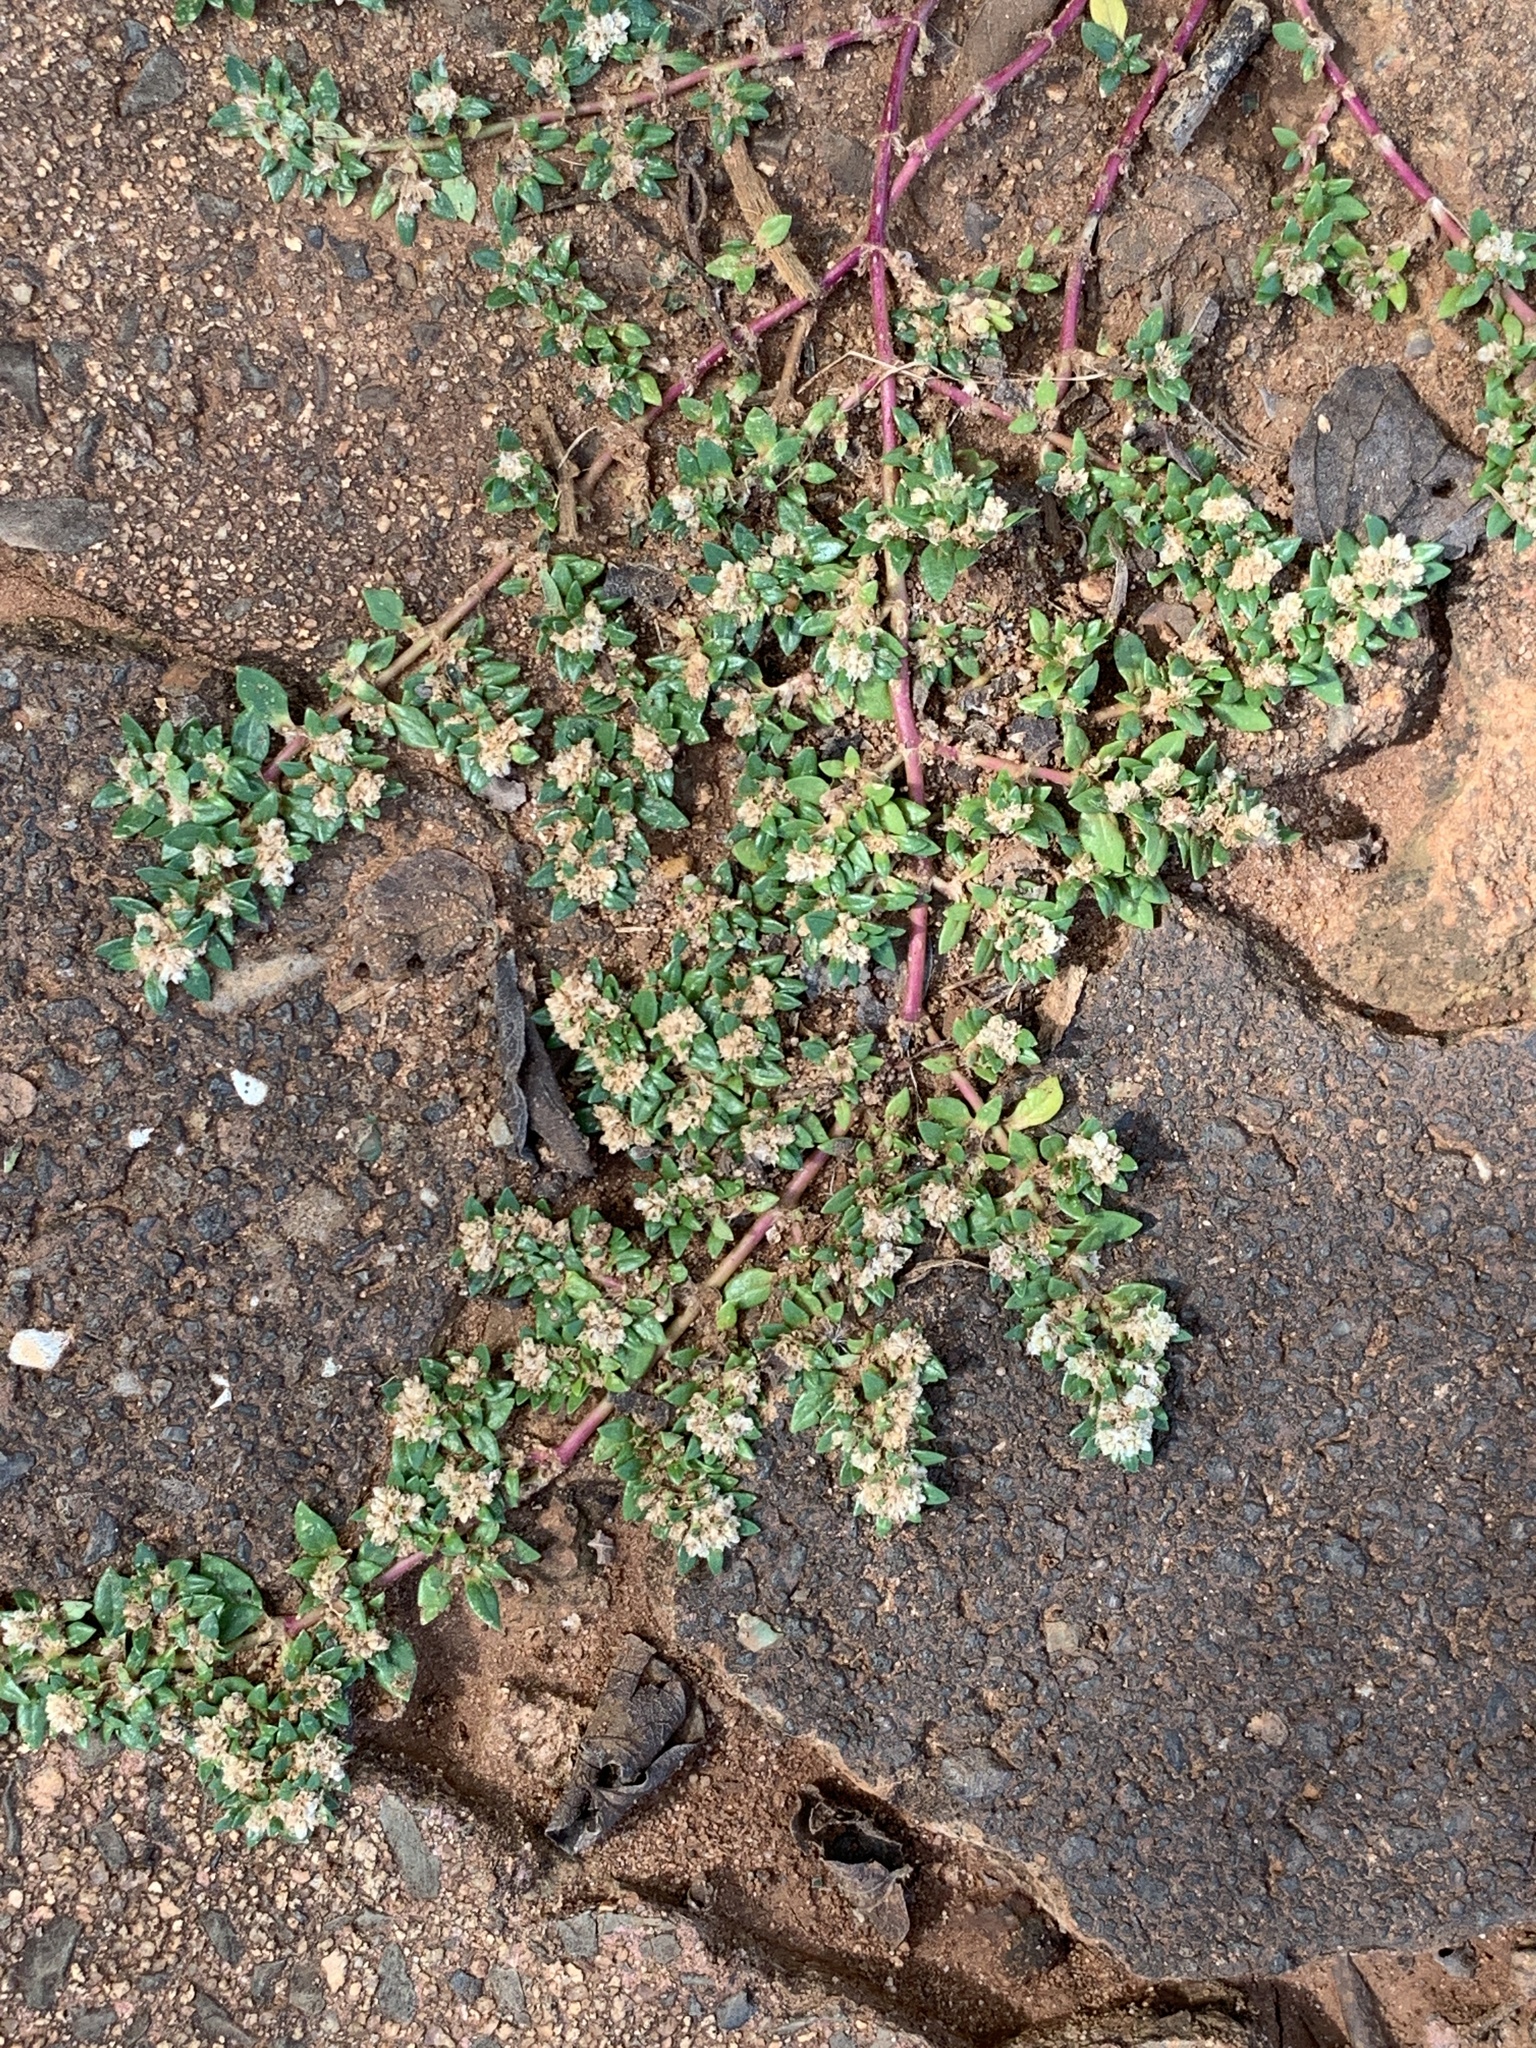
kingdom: Plantae
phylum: Tracheophyta
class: Magnoliopsida
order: Caryophyllales
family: Amaranthaceae
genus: Guilleminea
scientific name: Guilleminea densa
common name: Small matweed
